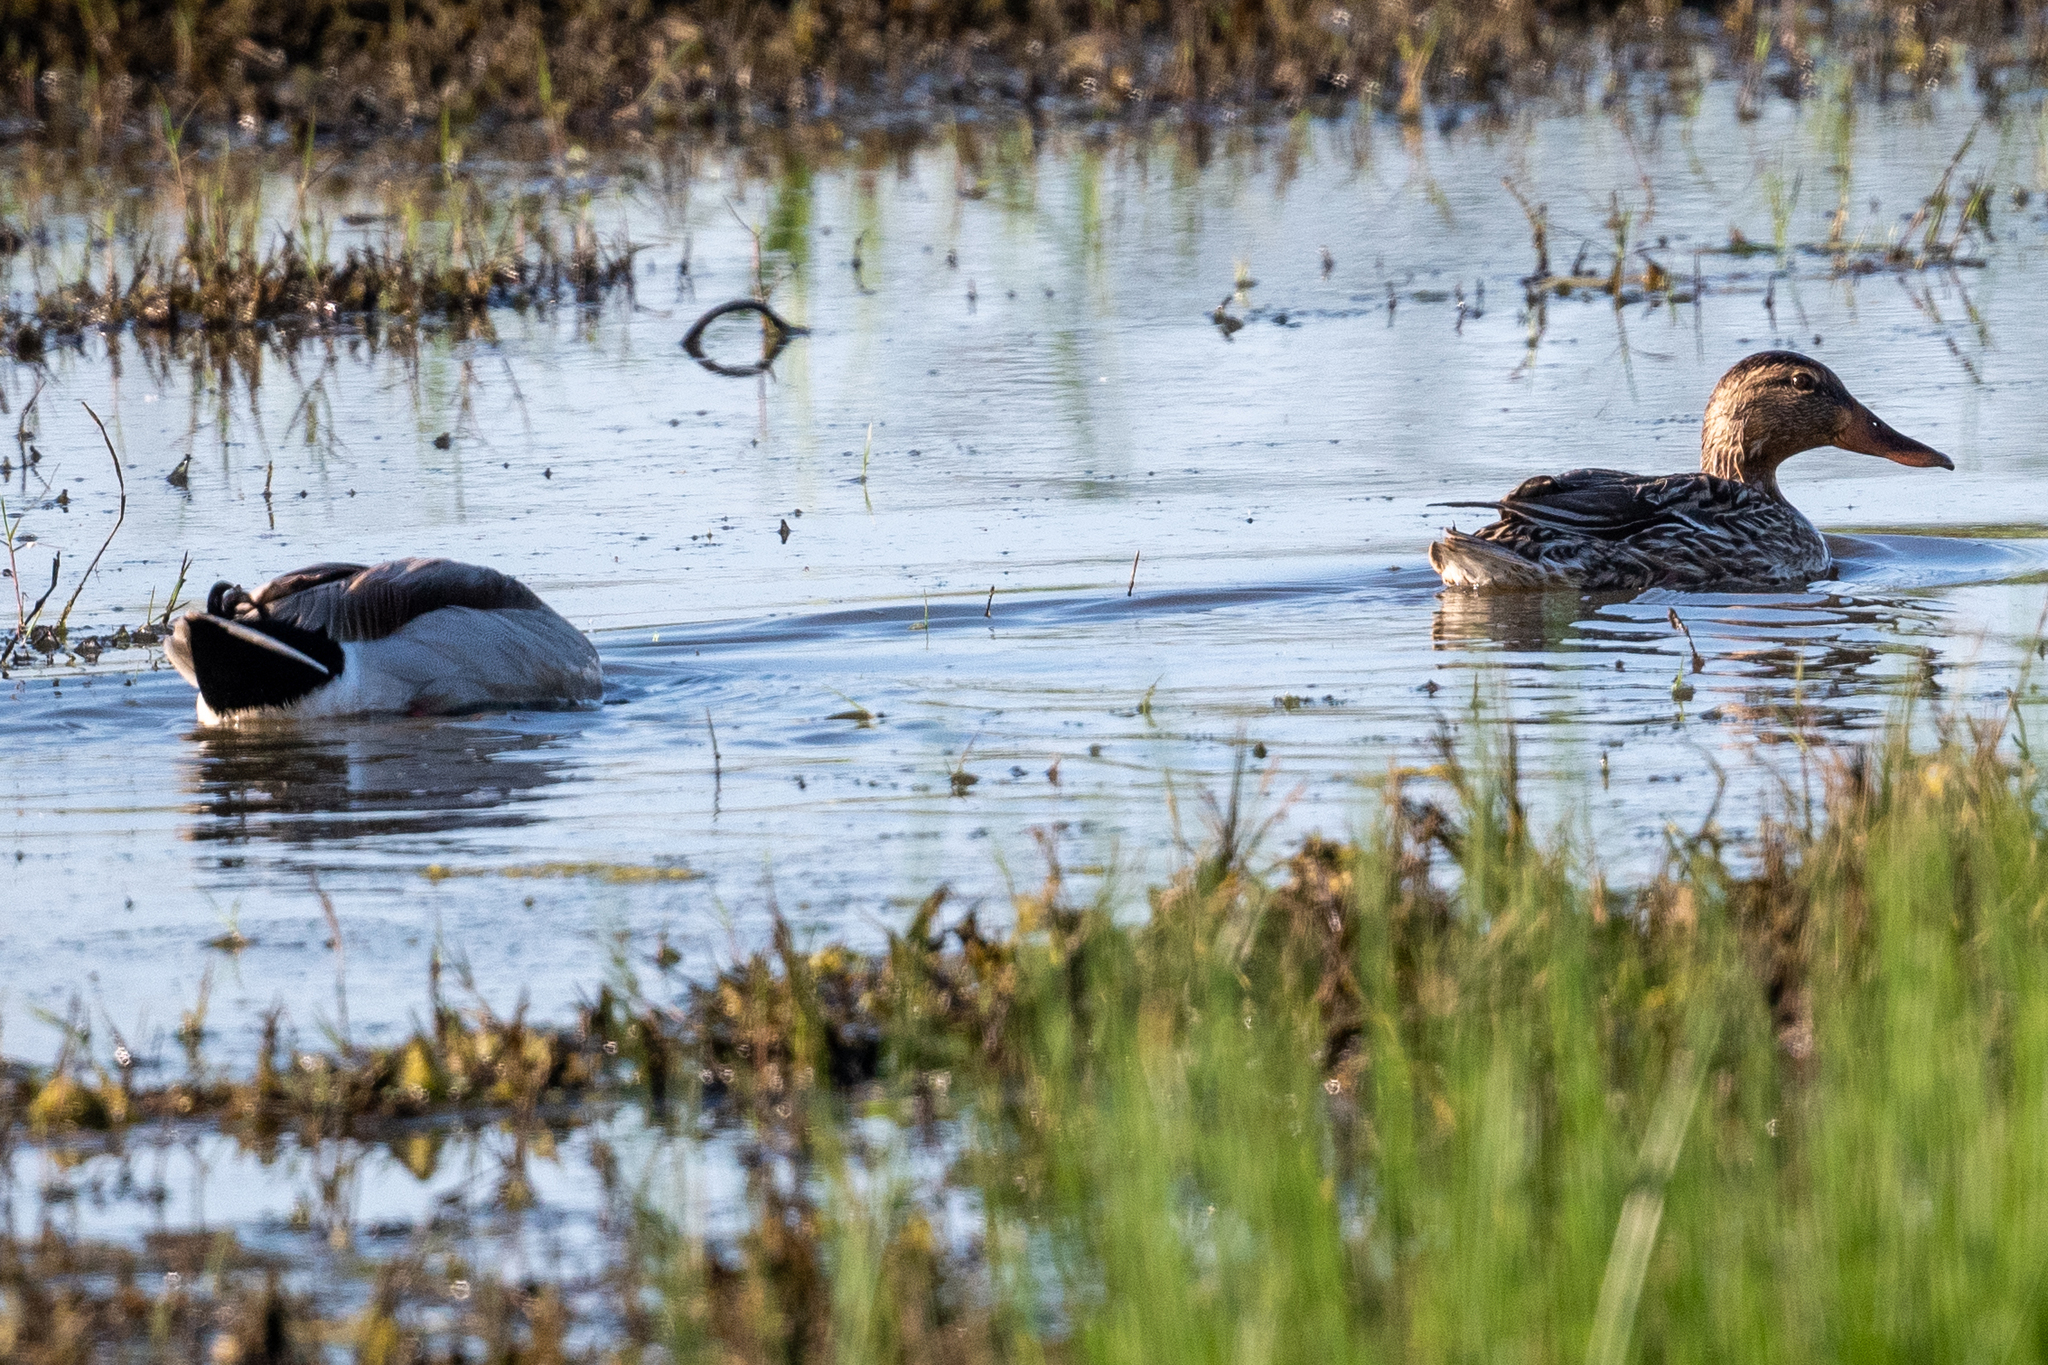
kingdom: Animalia
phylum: Chordata
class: Aves
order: Anseriformes
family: Anatidae
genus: Anas
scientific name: Anas platyrhynchos
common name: Mallard
